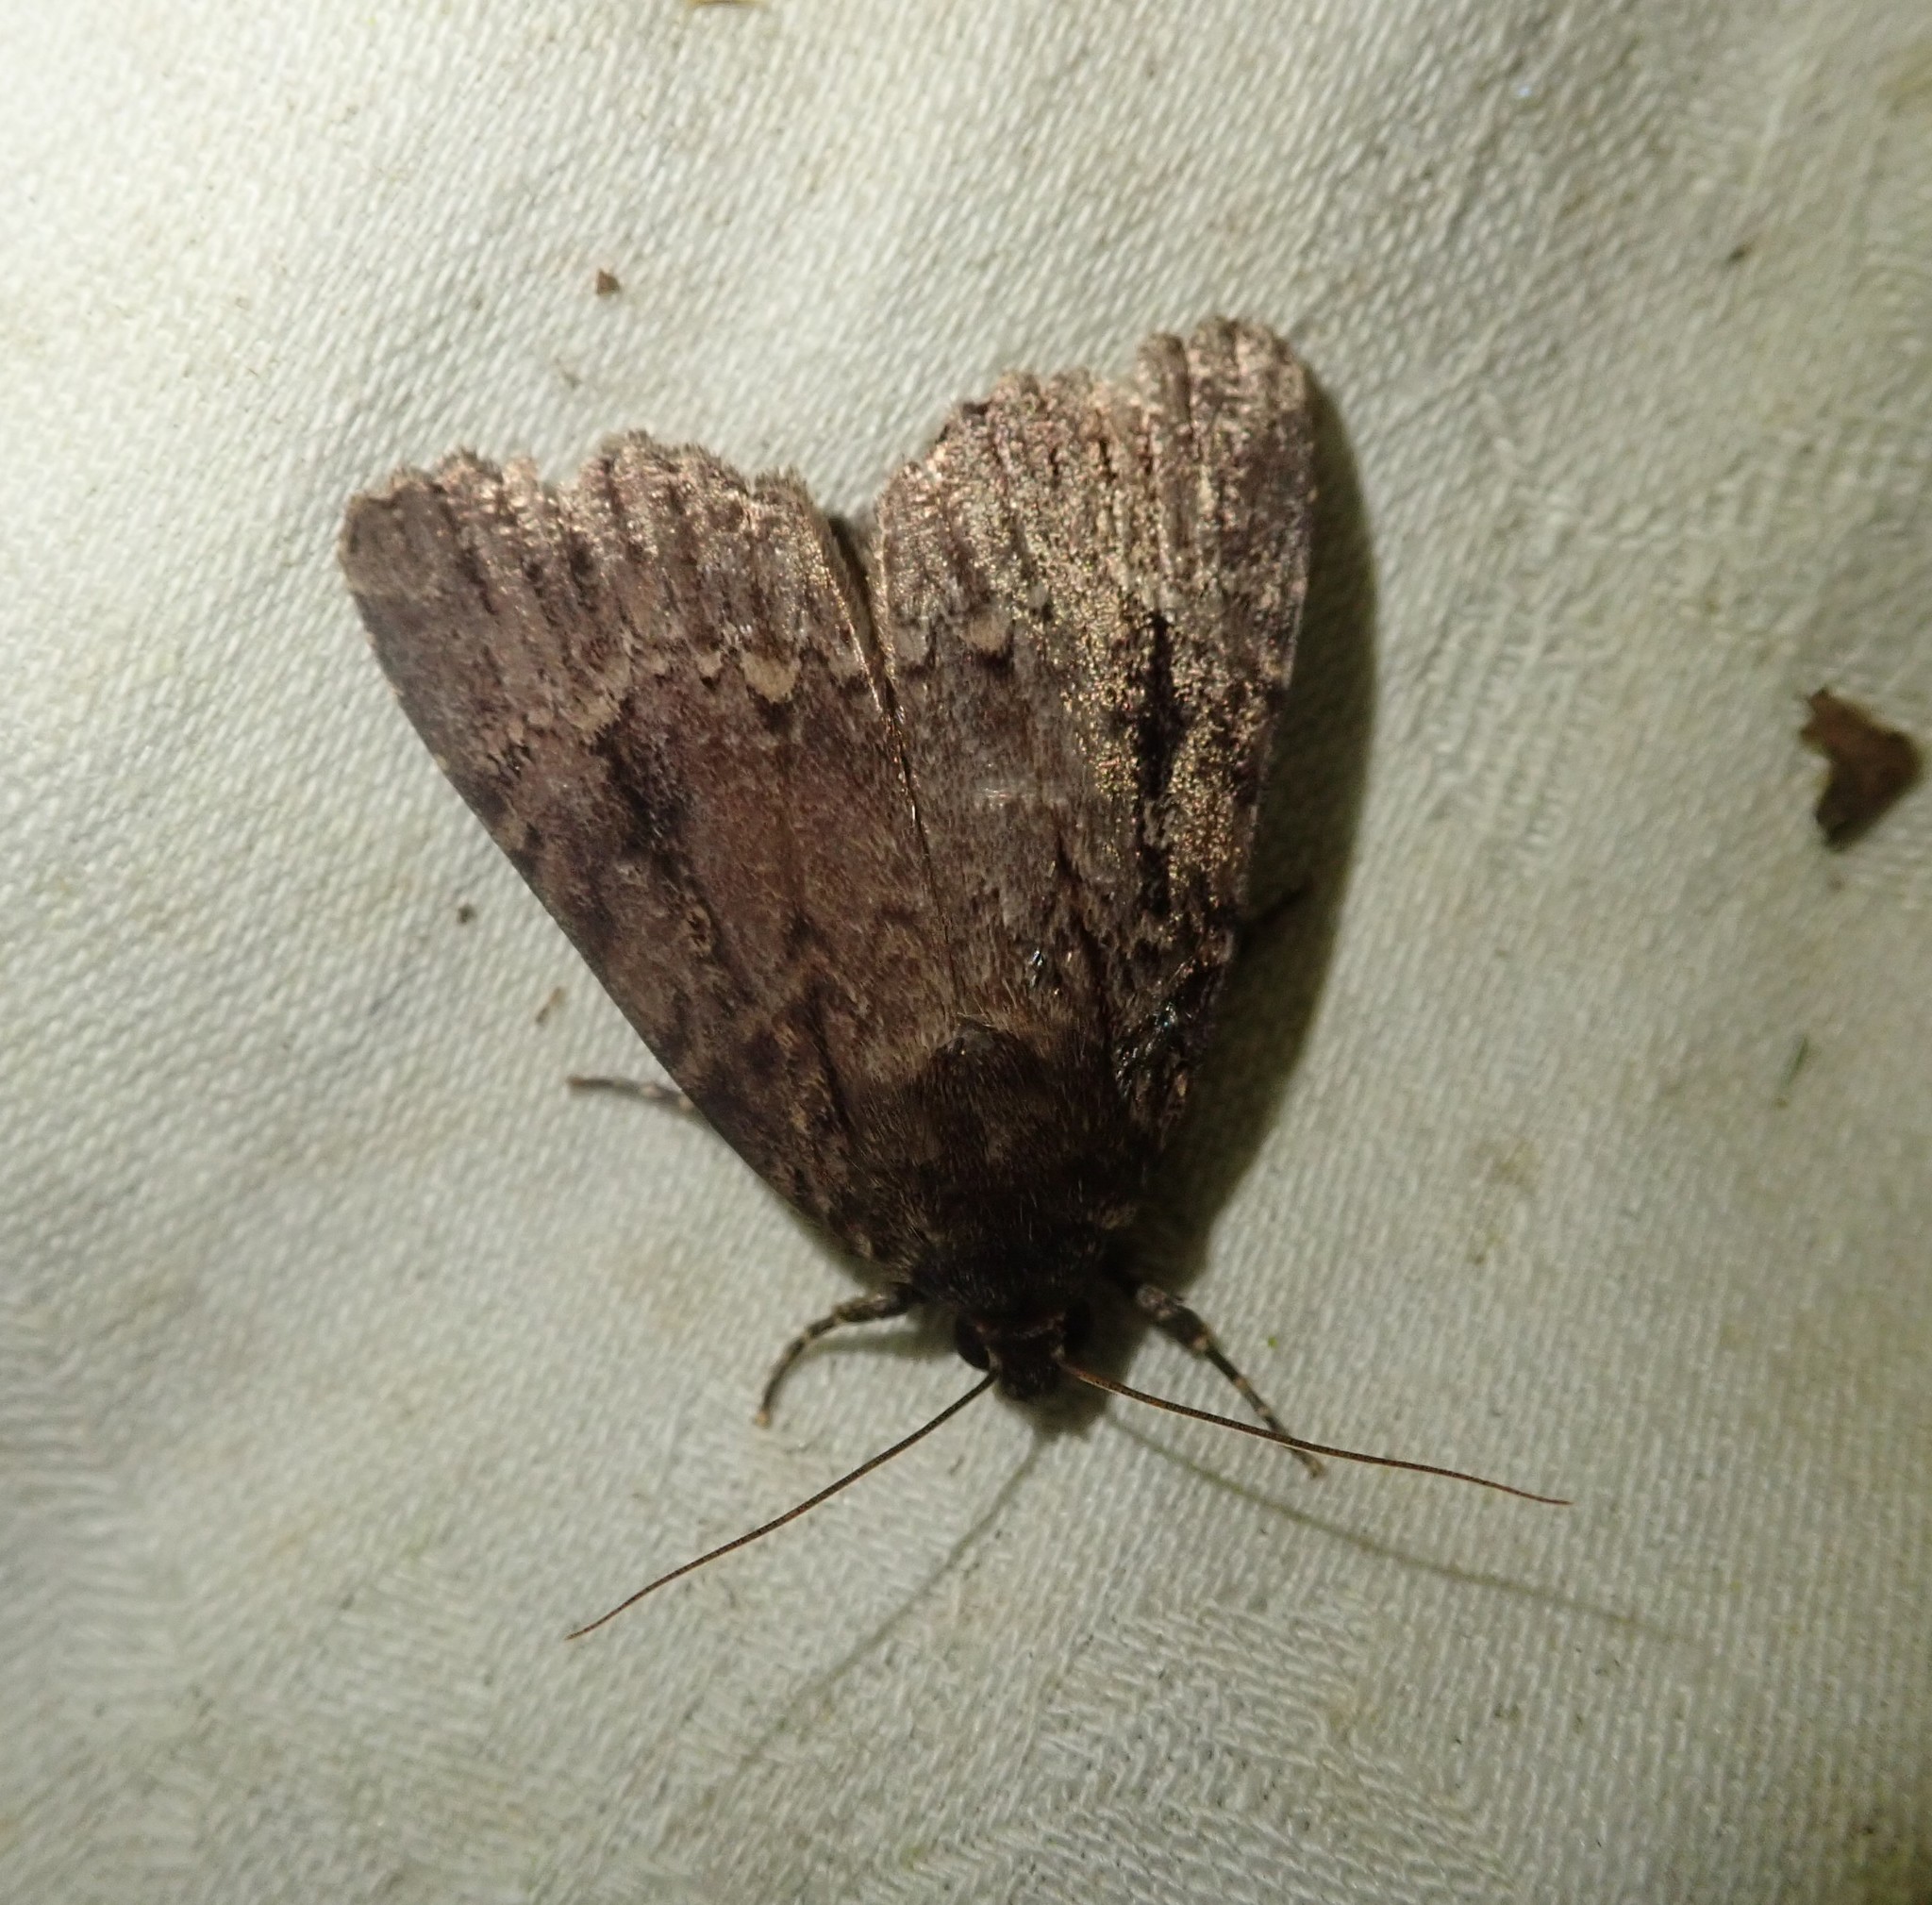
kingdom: Animalia
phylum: Arthropoda
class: Insecta
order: Lepidoptera
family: Noctuidae
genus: Amphipyra
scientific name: Amphipyra pyramidea
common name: Copper underwing
